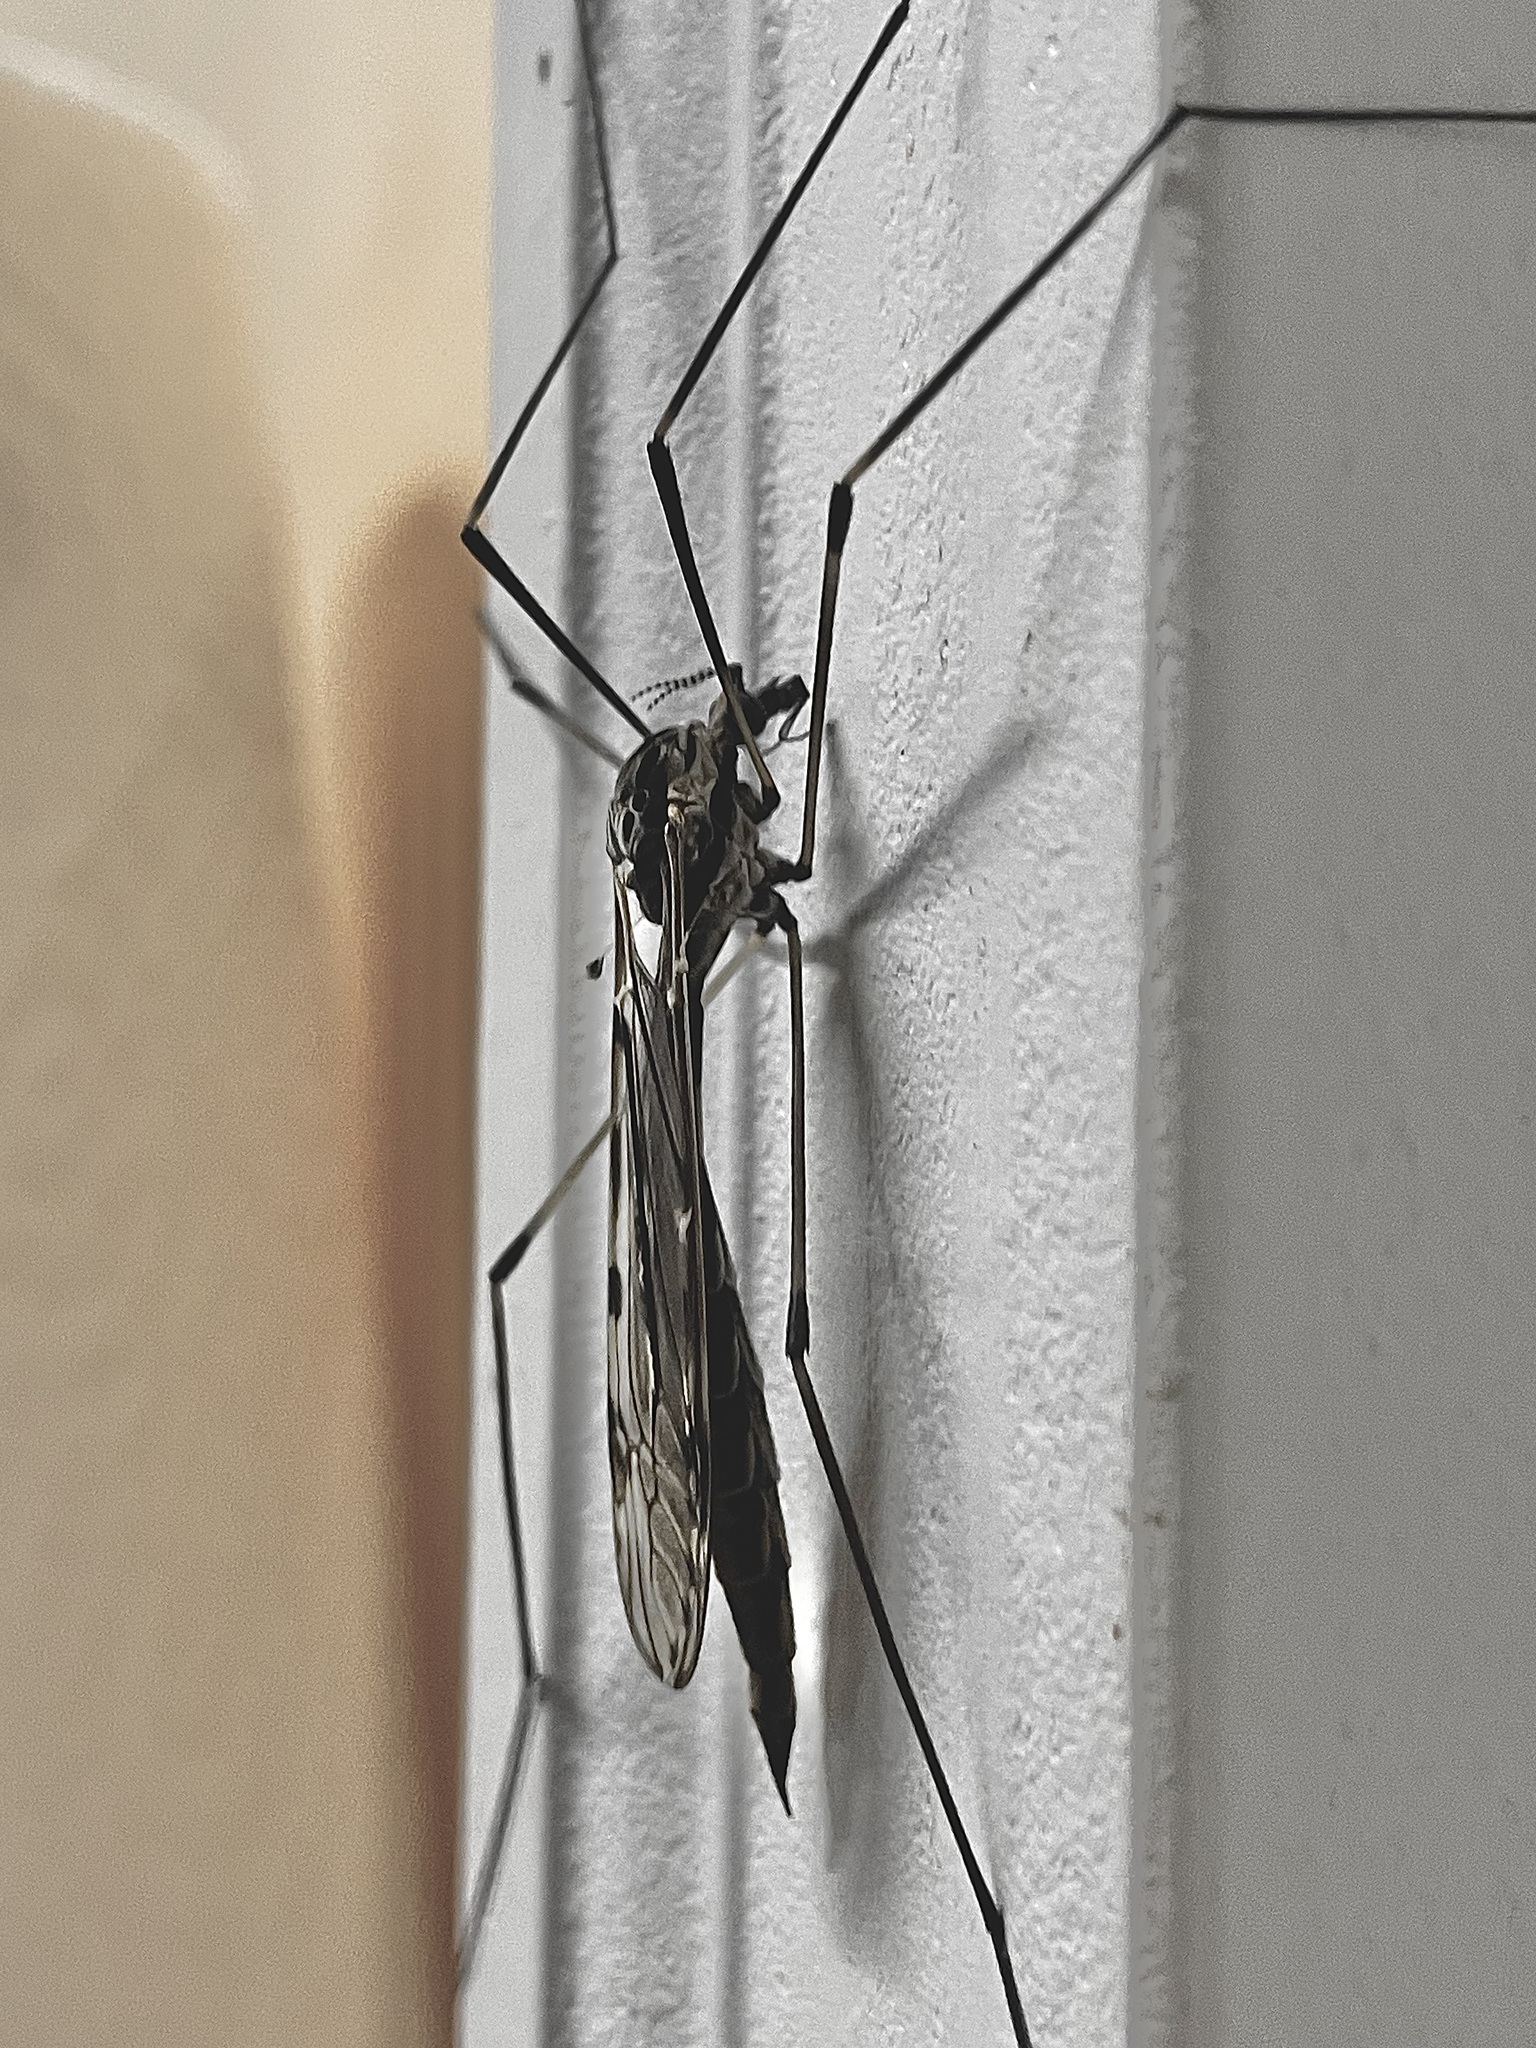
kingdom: Animalia
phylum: Arthropoda
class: Insecta
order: Diptera
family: Tipulidae
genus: Tipula
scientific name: Tipula abdominalis
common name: Giant crane fly
